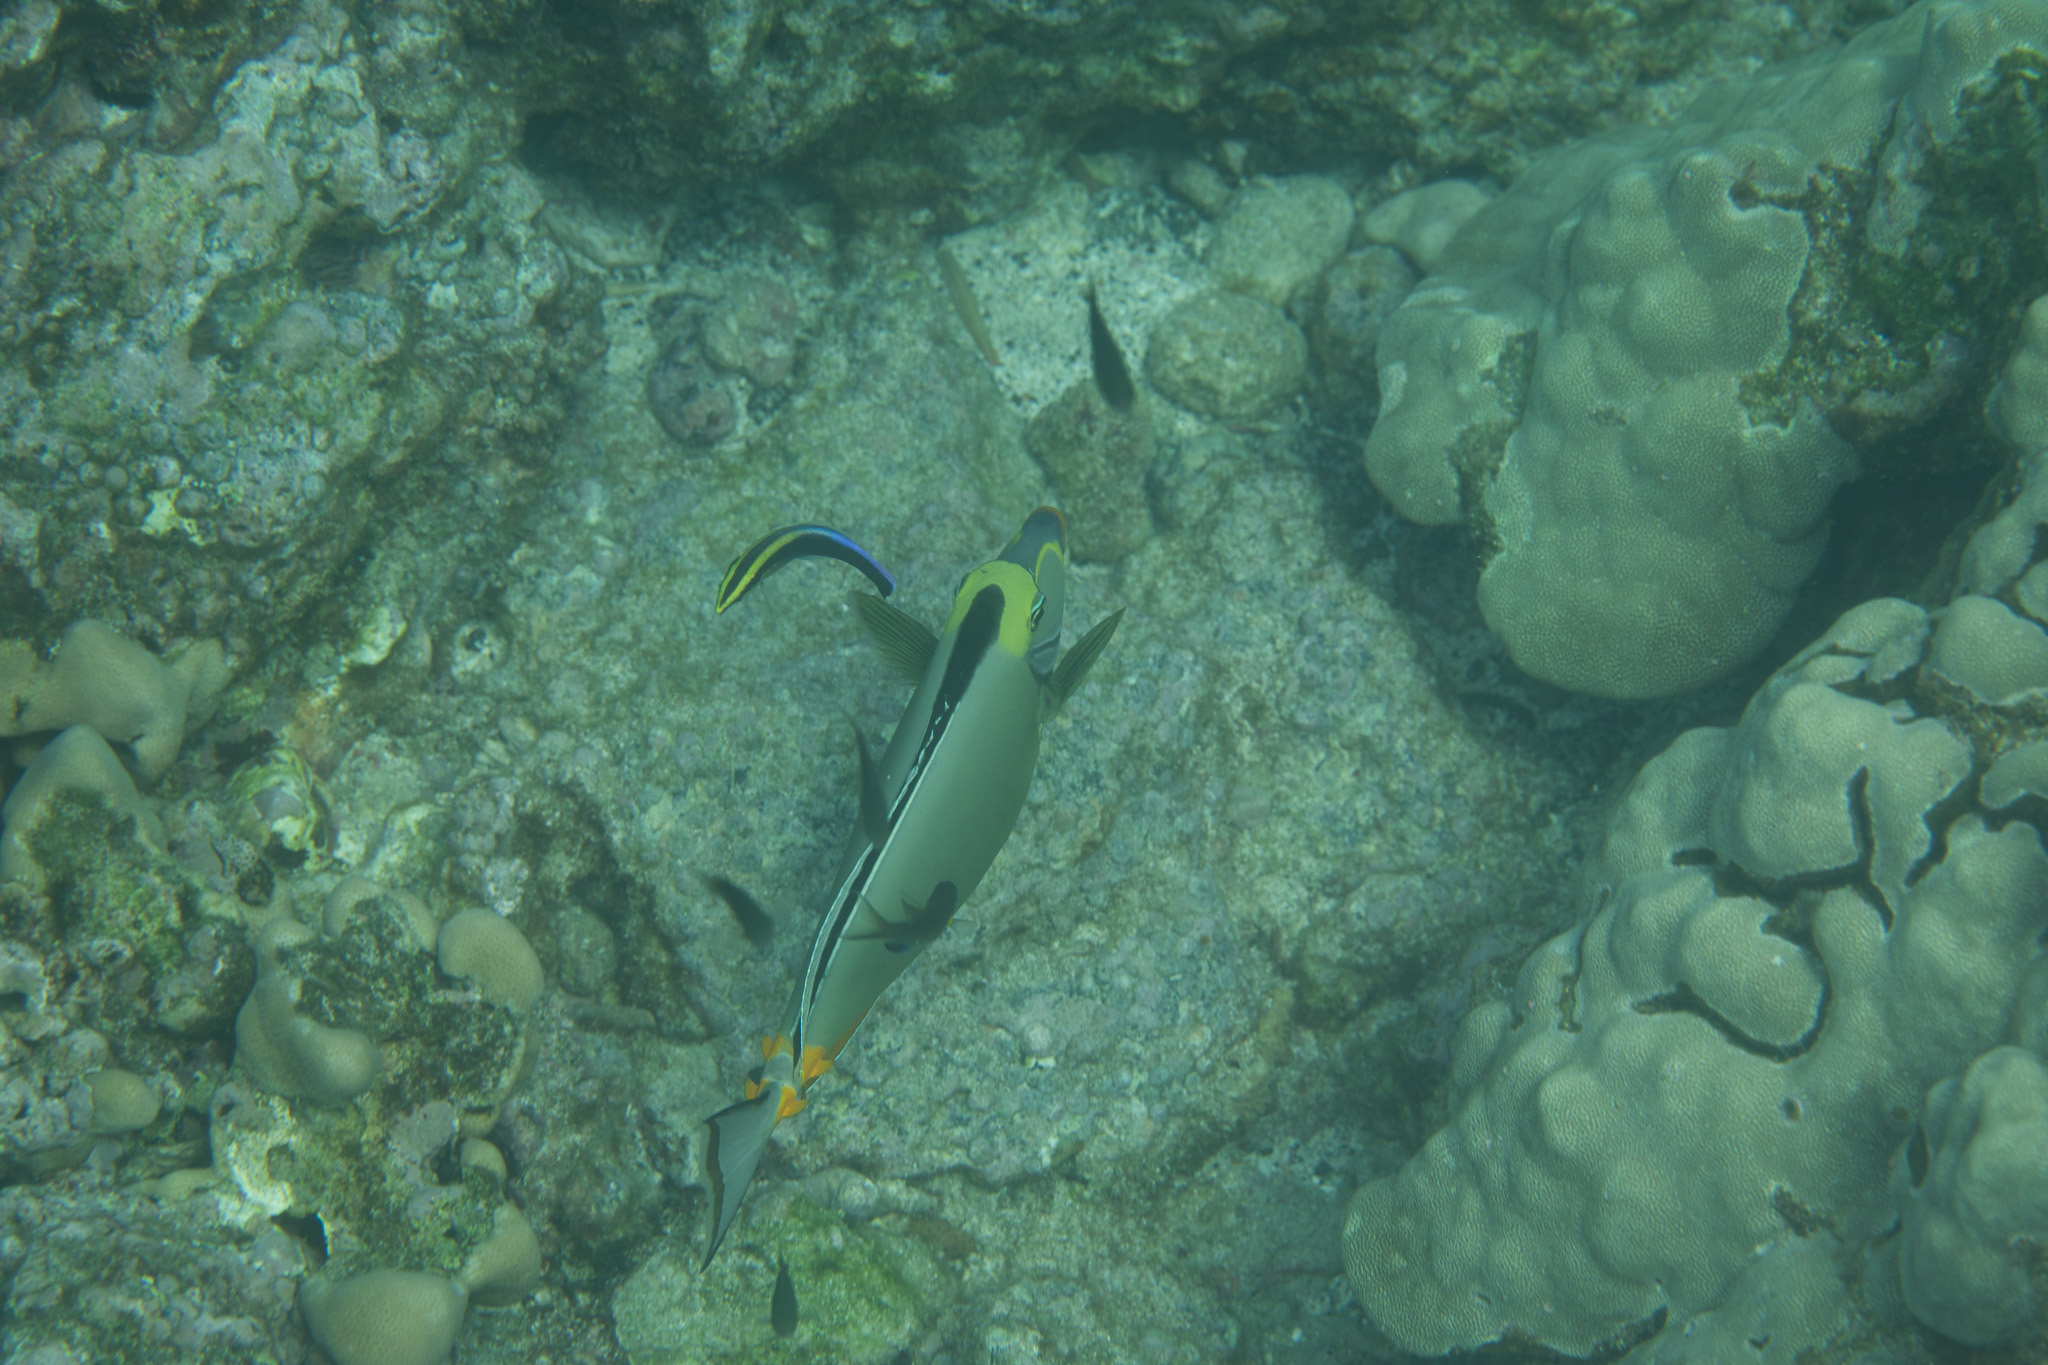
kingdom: Animalia
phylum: Chordata
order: Perciformes
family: Labridae
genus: Labroides
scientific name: Labroides phthirophagus
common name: Cleaner wrasse
